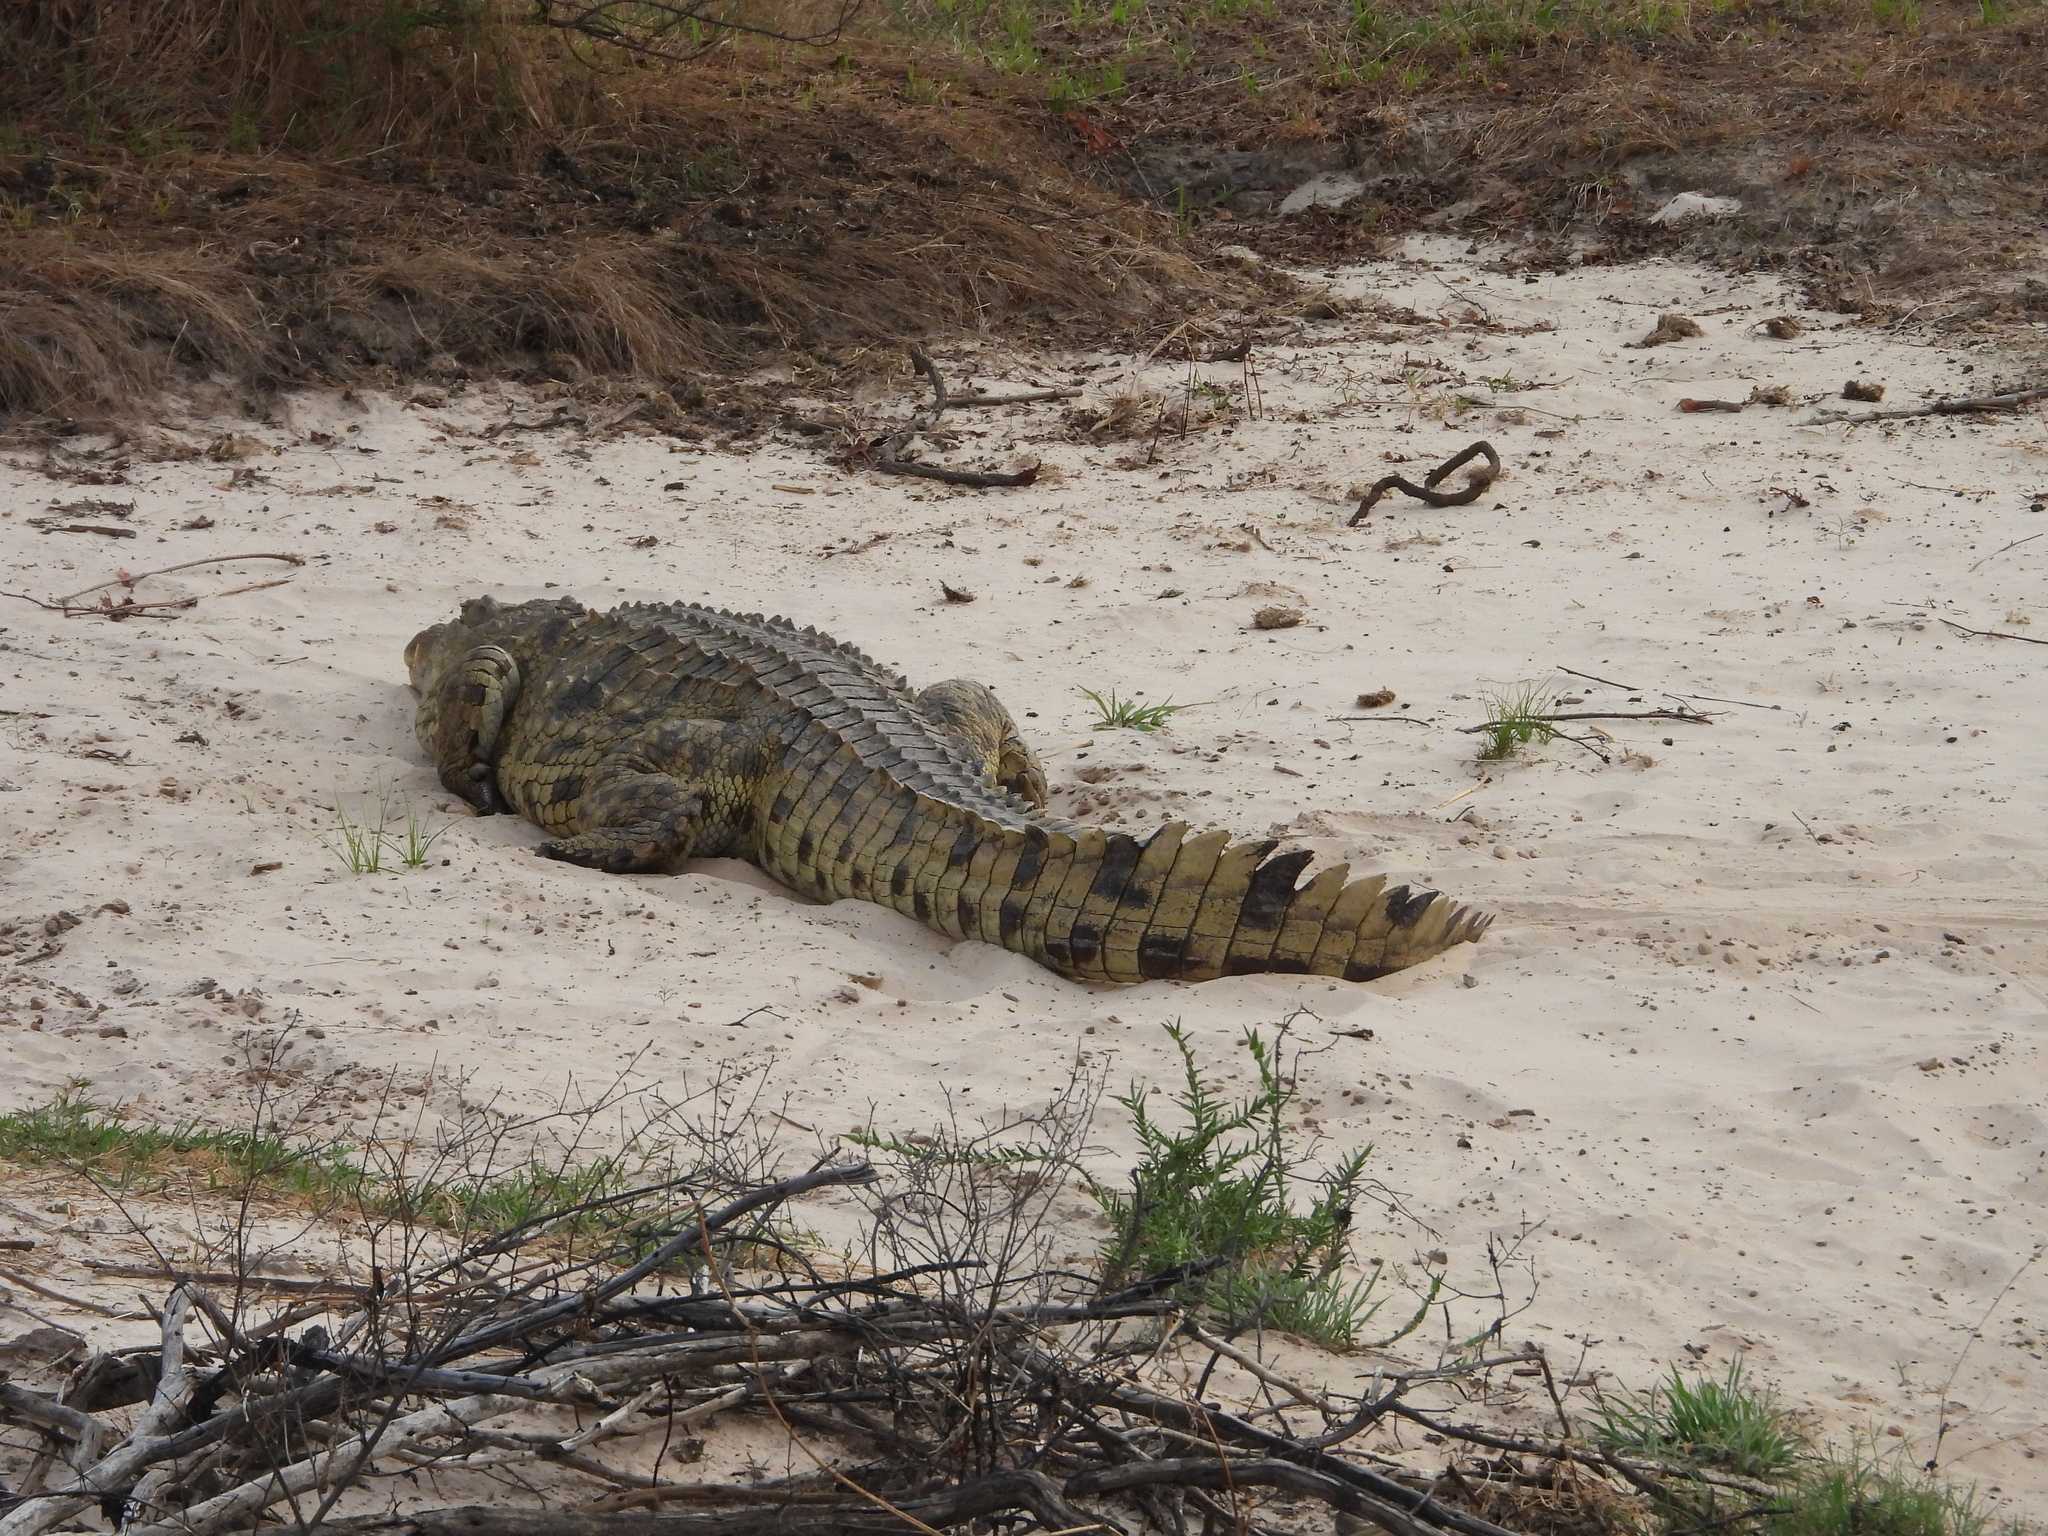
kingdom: Animalia
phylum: Chordata
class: Crocodylia
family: Crocodylidae
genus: Crocodylus
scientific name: Crocodylus niloticus
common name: Nile crocodile
